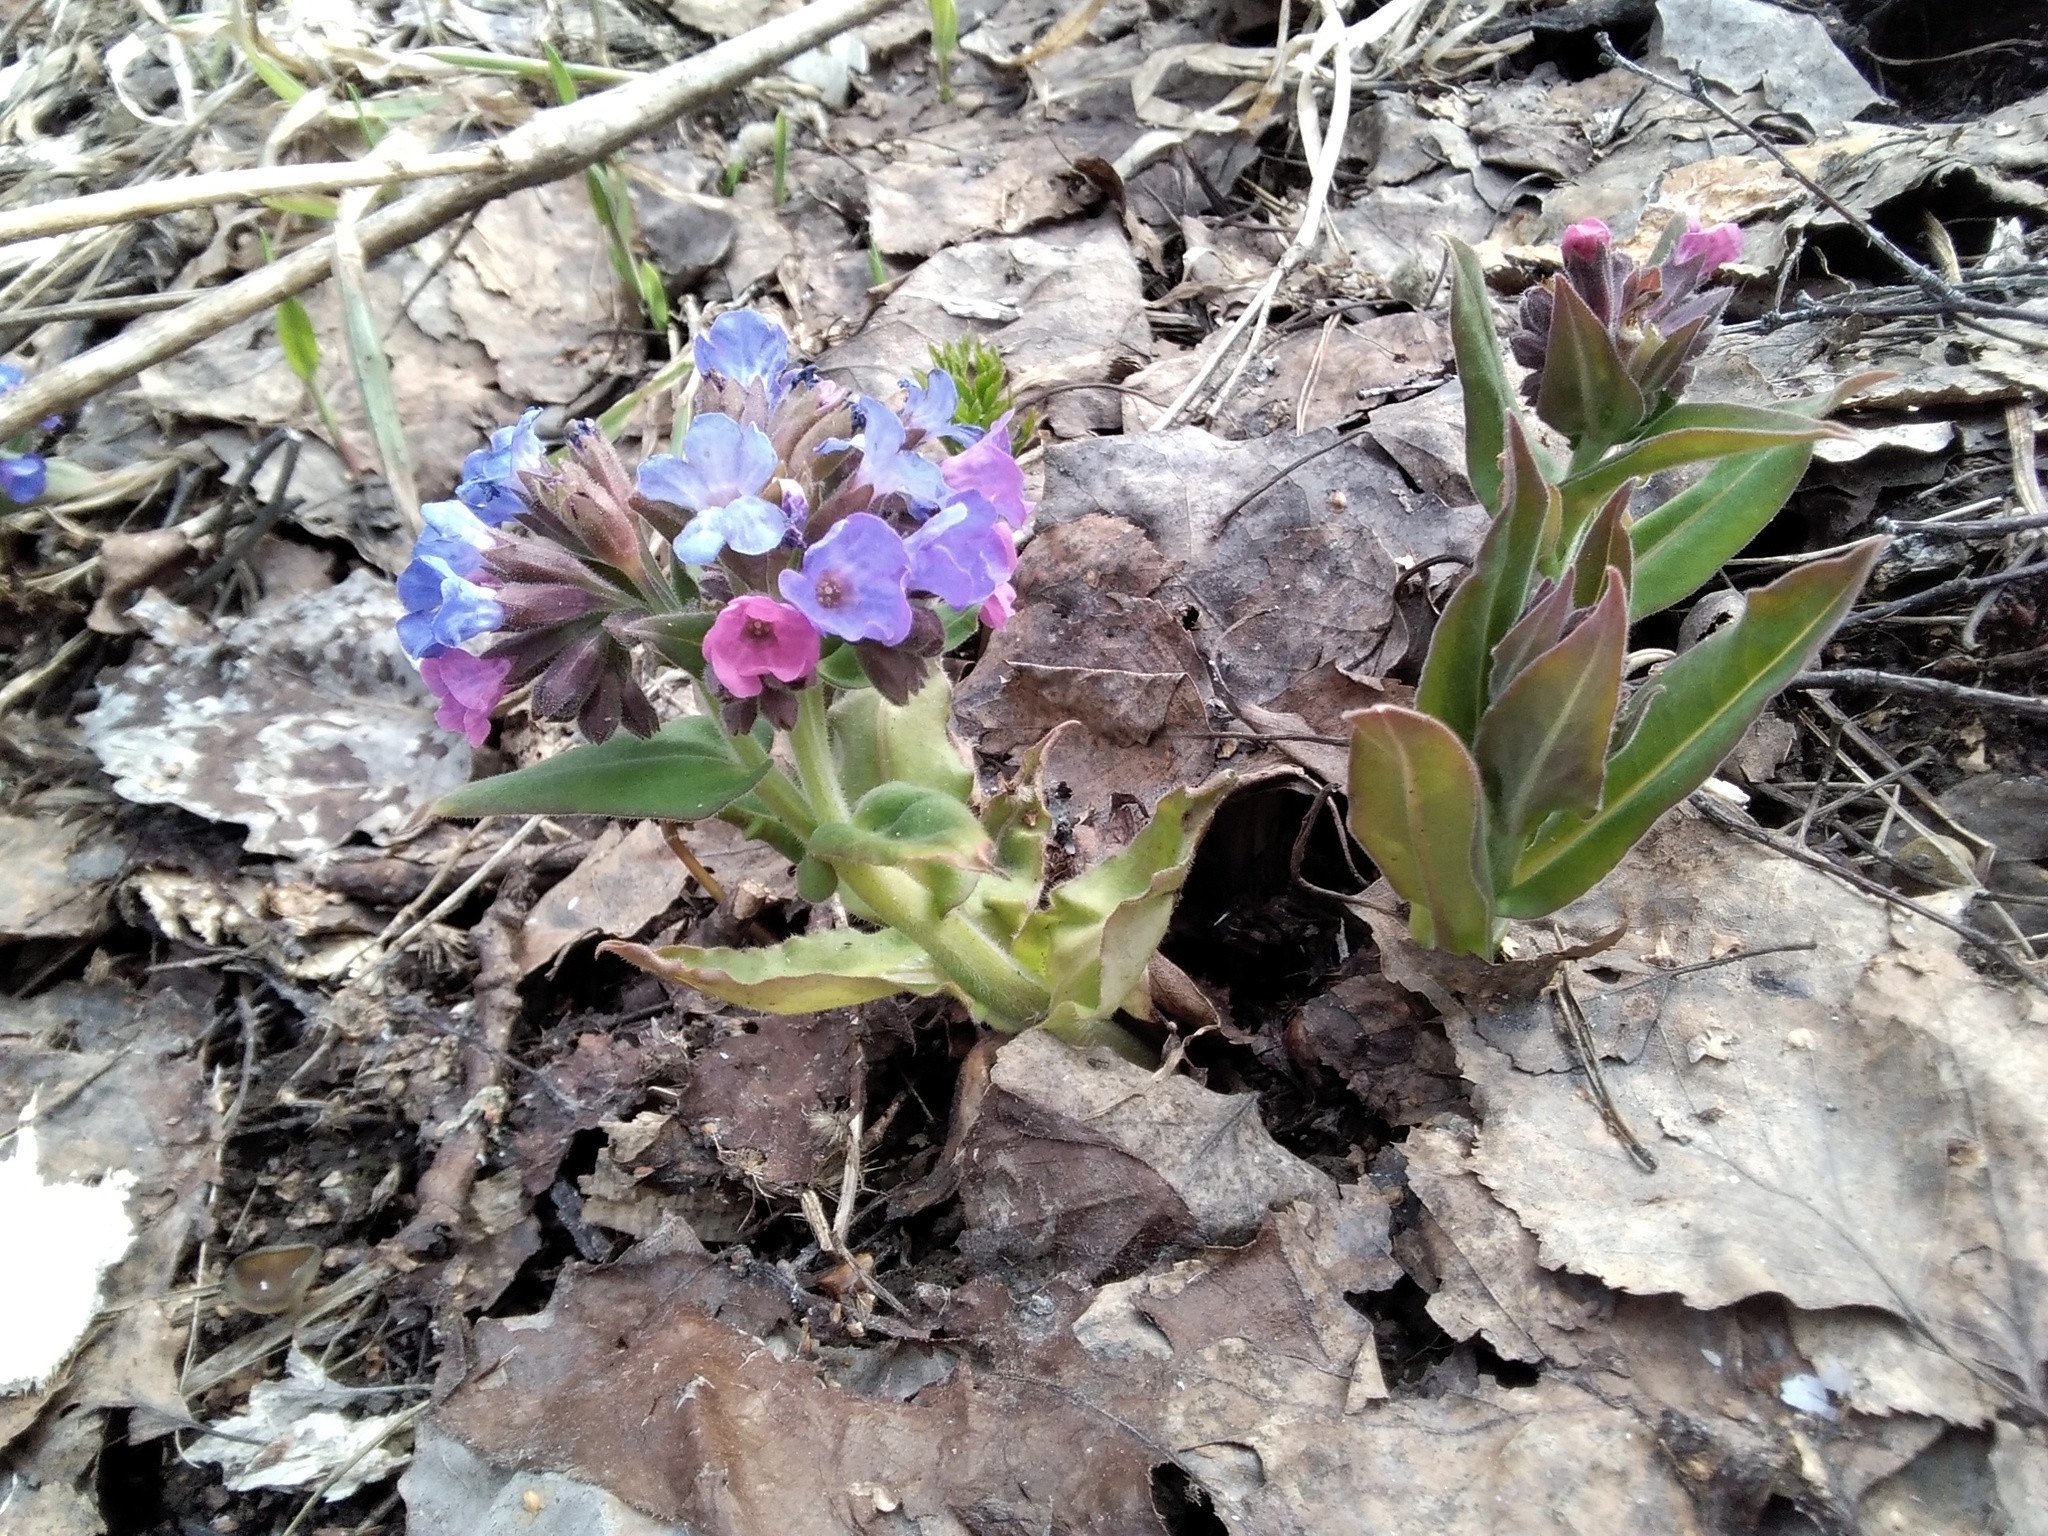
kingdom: Plantae
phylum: Tracheophyta
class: Magnoliopsida
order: Boraginales
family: Boraginaceae
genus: Pulmonaria
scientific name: Pulmonaria mollis
